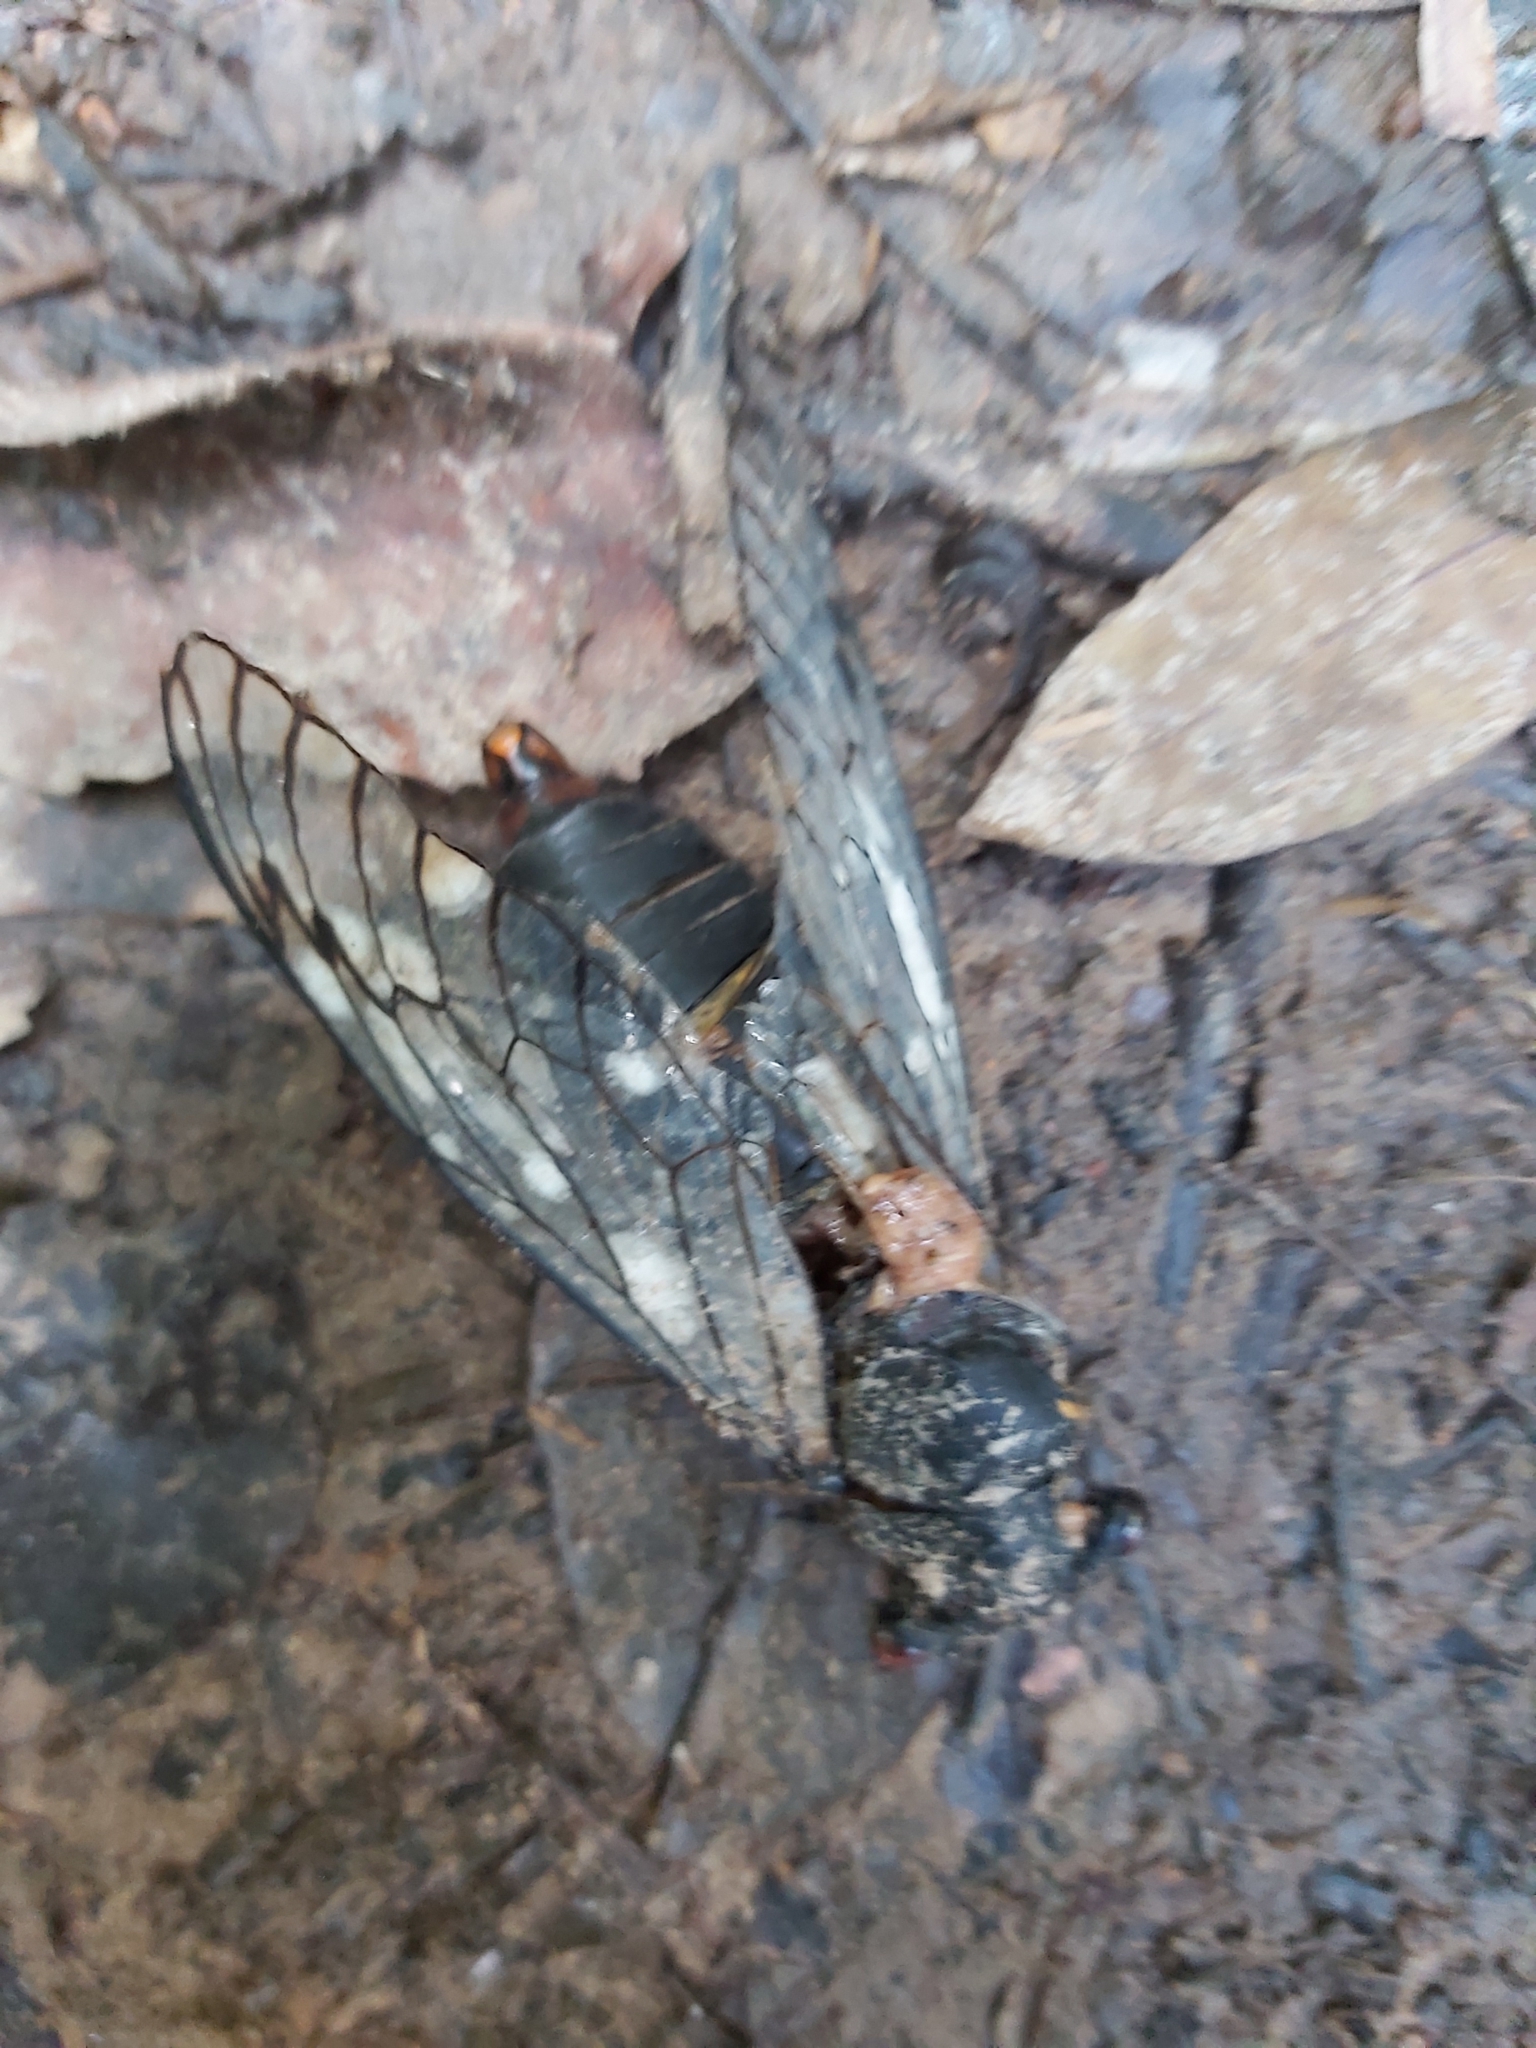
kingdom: Animalia
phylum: Arthropoda
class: Insecta
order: Hemiptera
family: Cicadidae
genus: Psaltoda
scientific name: Psaltoda moerens
